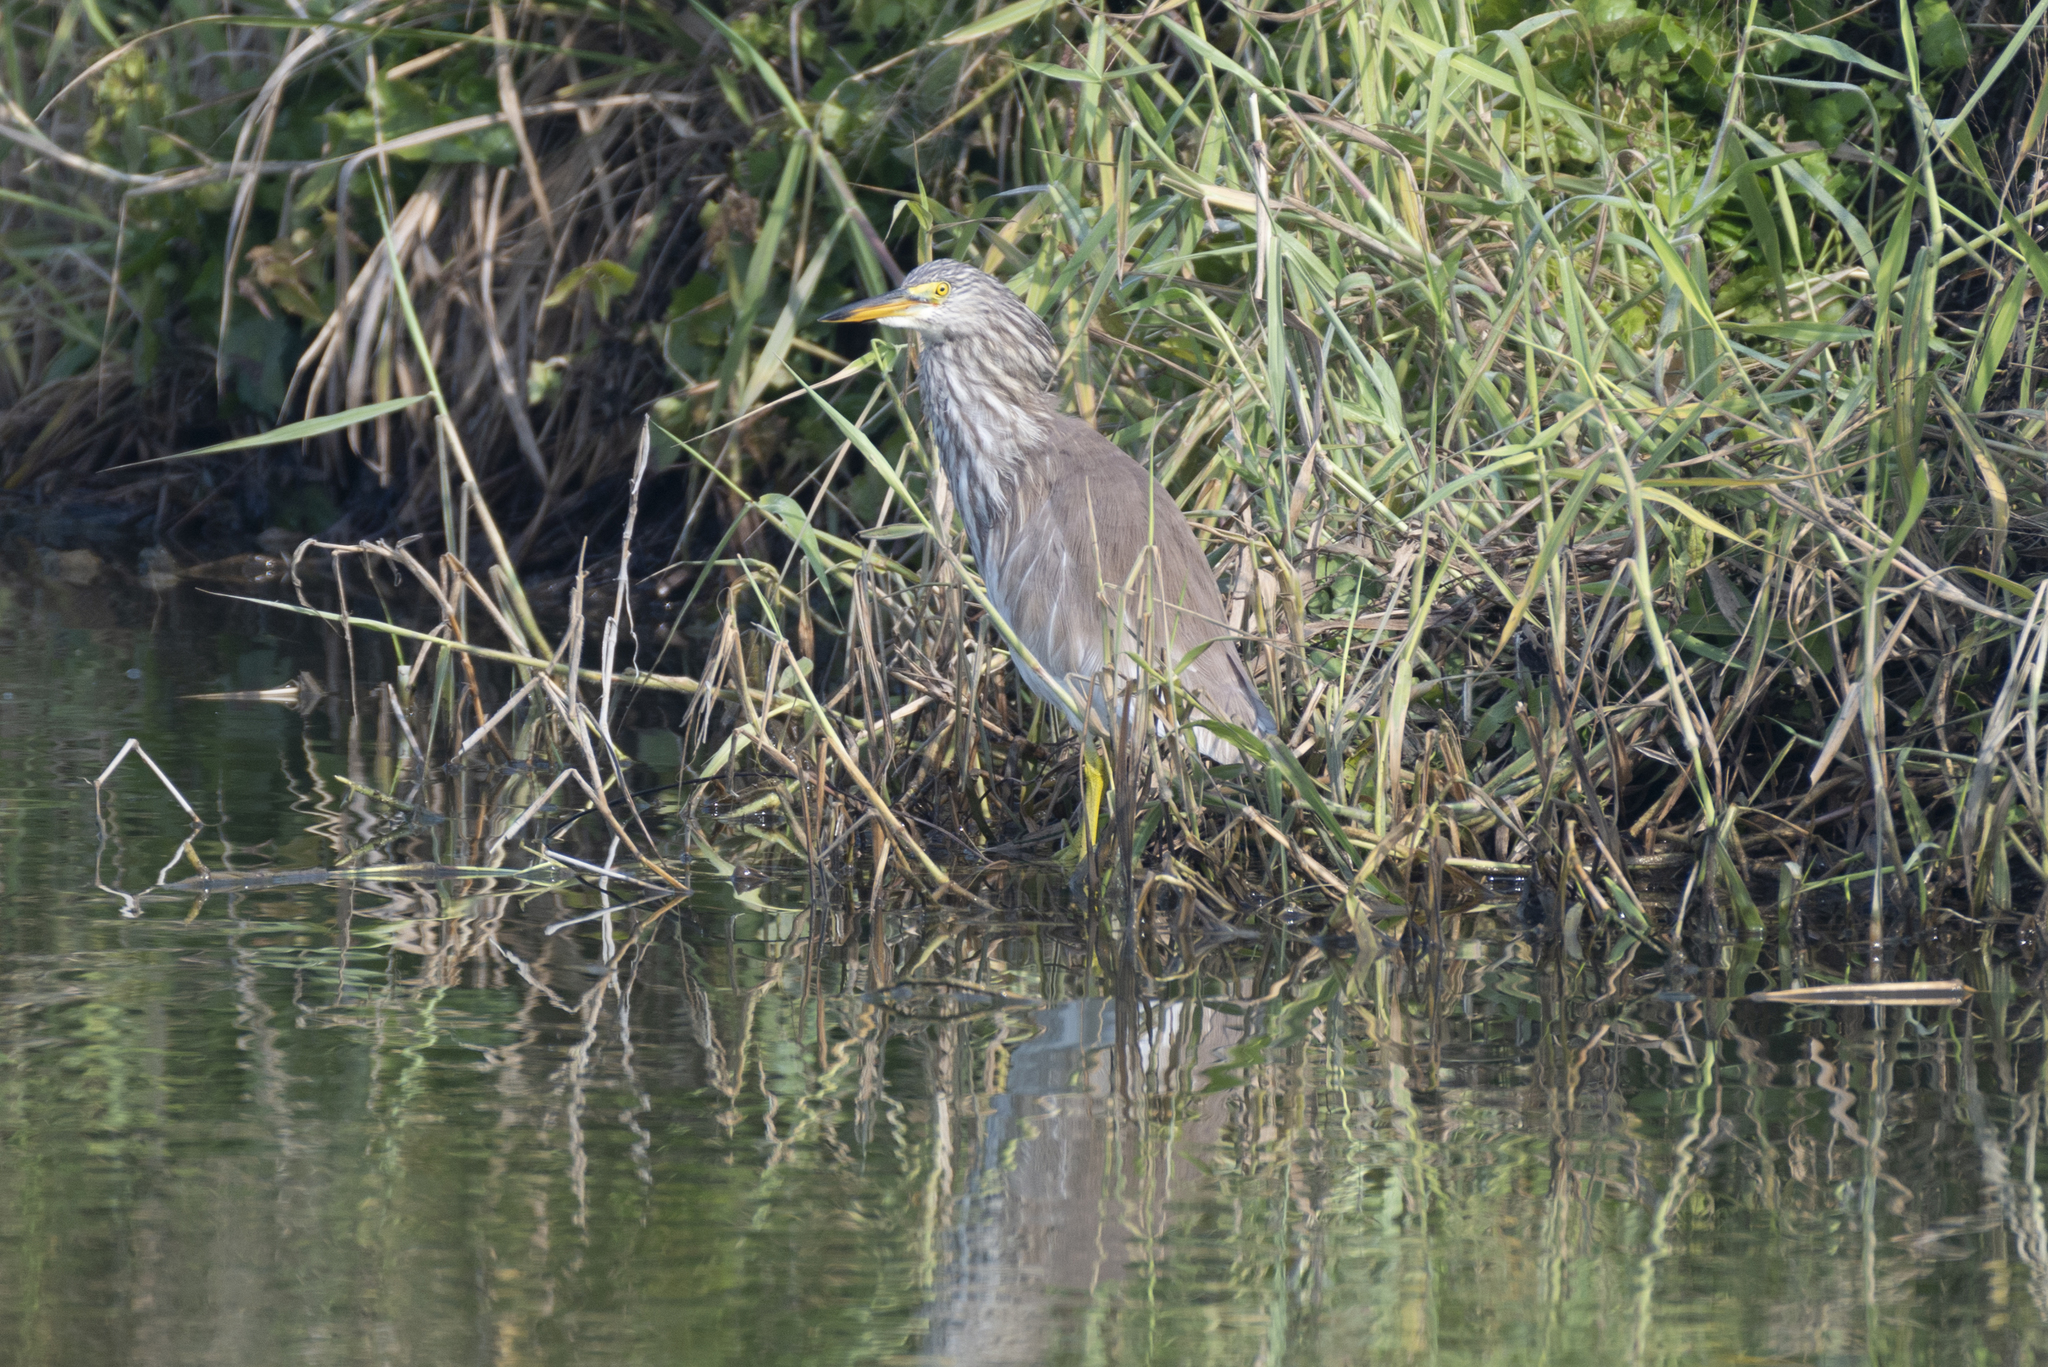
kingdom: Animalia
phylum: Chordata
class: Aves
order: Pelecaniformes
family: Ardeidae
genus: Ardeola
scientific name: Ardeola bacchus
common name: Chinese pond heron
